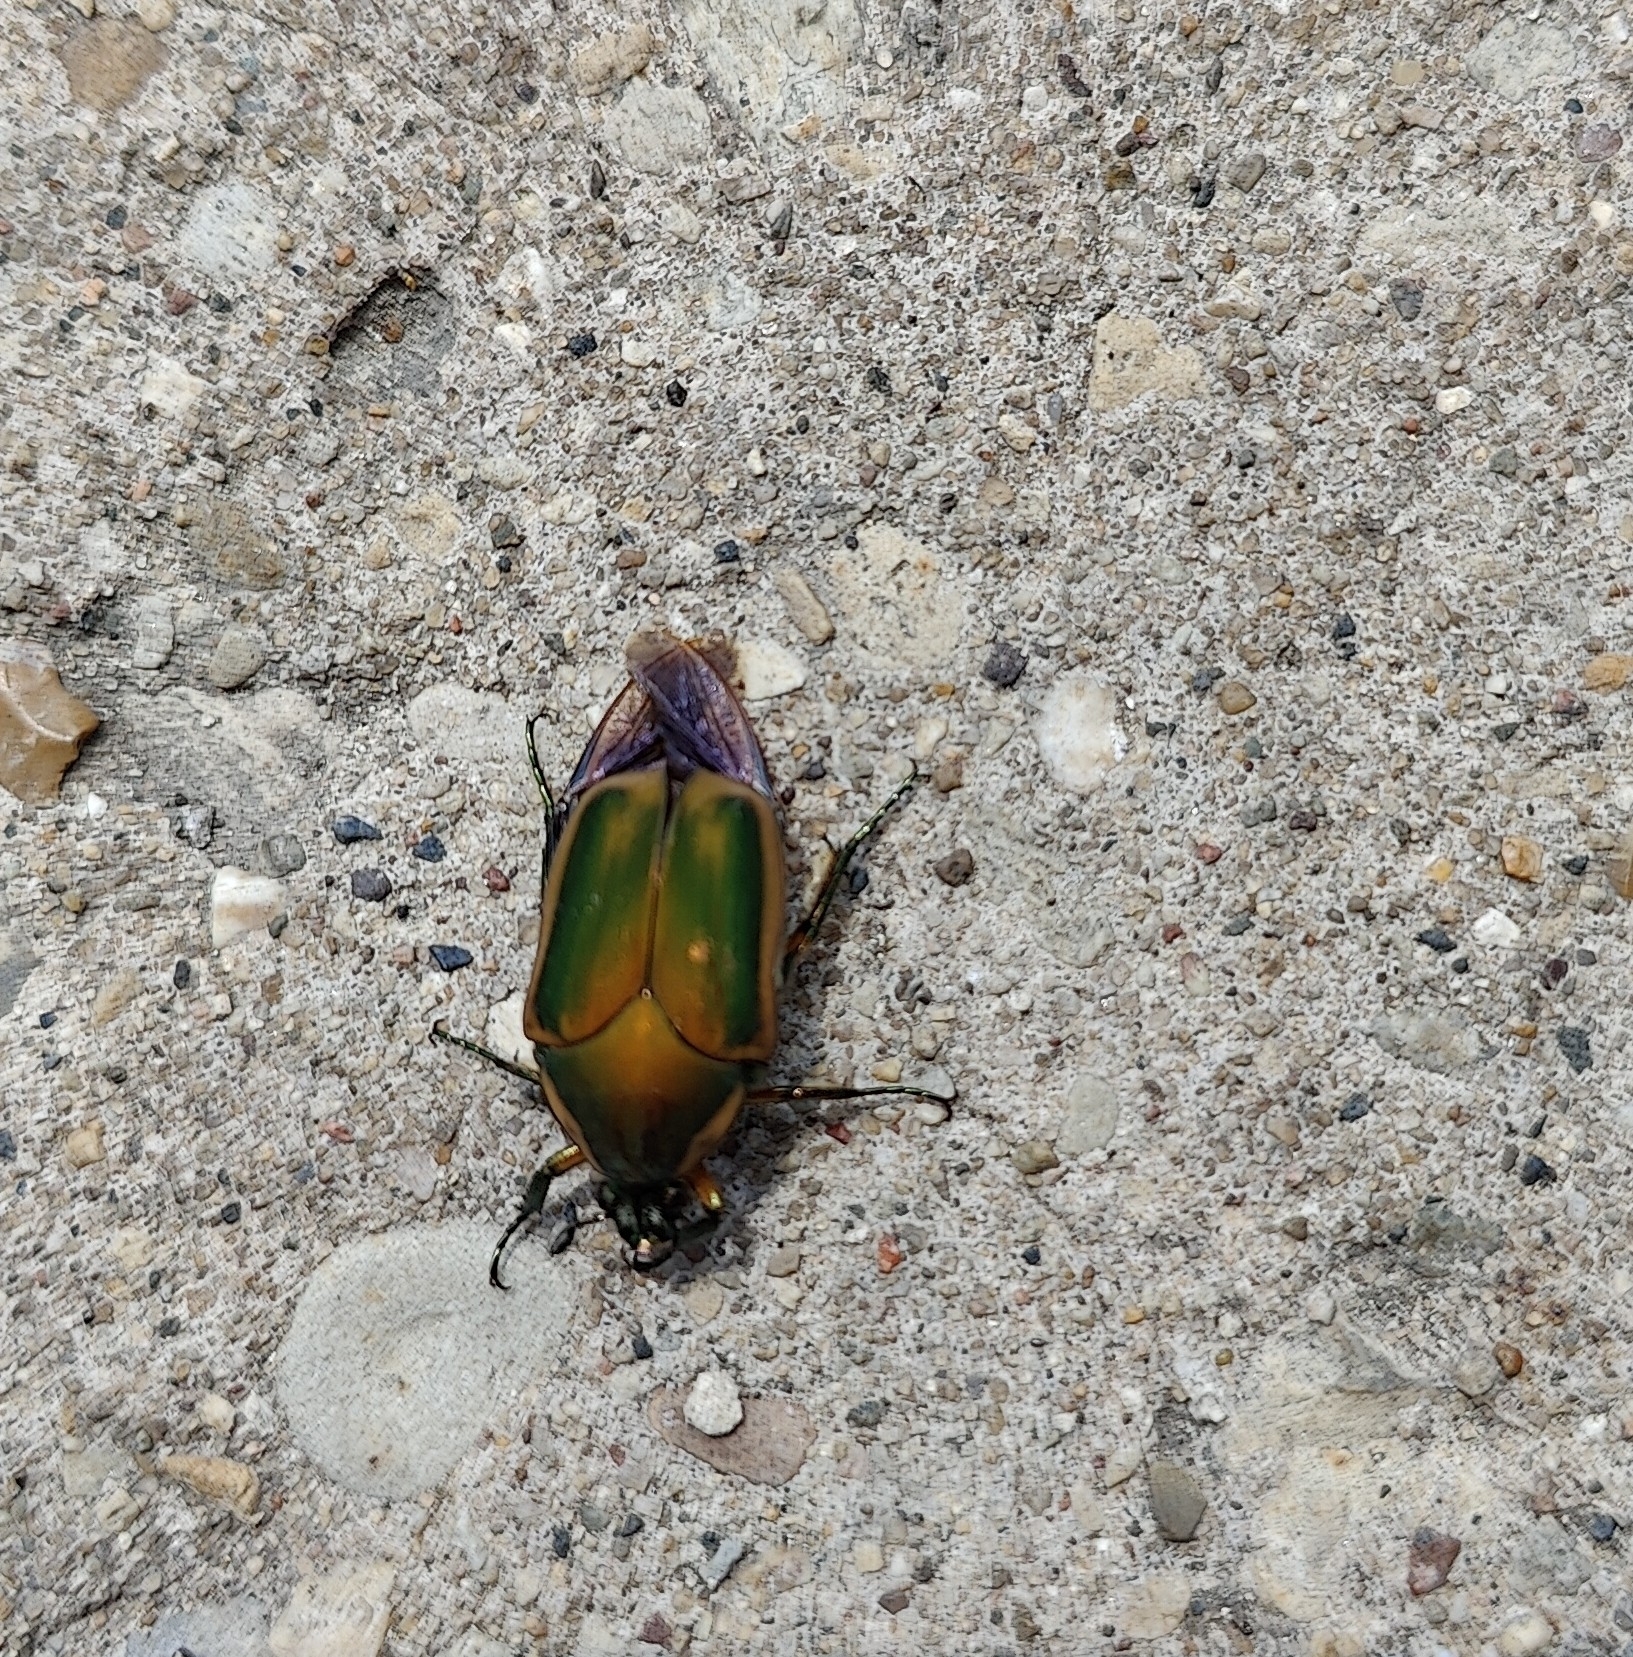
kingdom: Animalia
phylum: Arthropoda
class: Insecta
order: Coleoptera
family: Scarabaeidae
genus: Cotinis
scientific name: Cotinis nitida
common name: Common green june beetle
